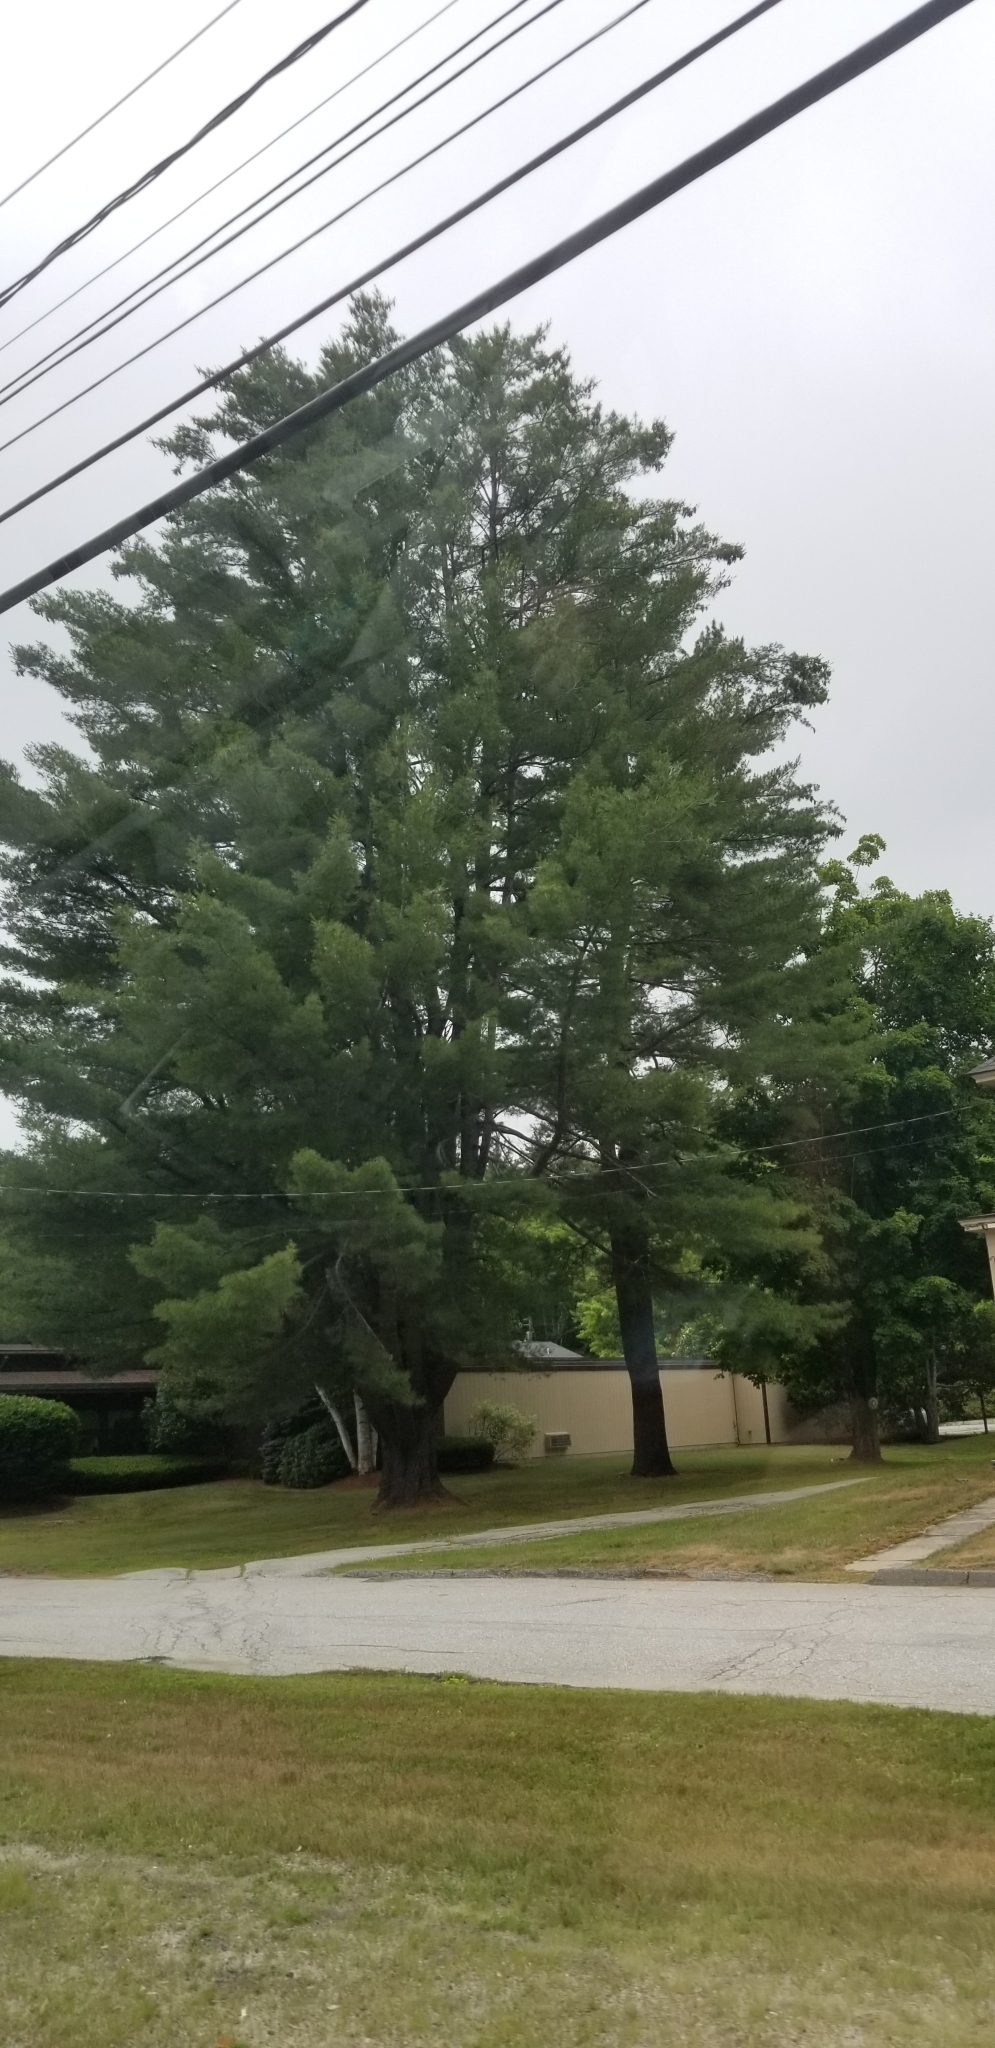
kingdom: Plantae
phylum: Tracheophyta
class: Pinopsida
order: Pinales
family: Pinaceae
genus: Pinus
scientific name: Pinus strobus
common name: Weymouth pine
